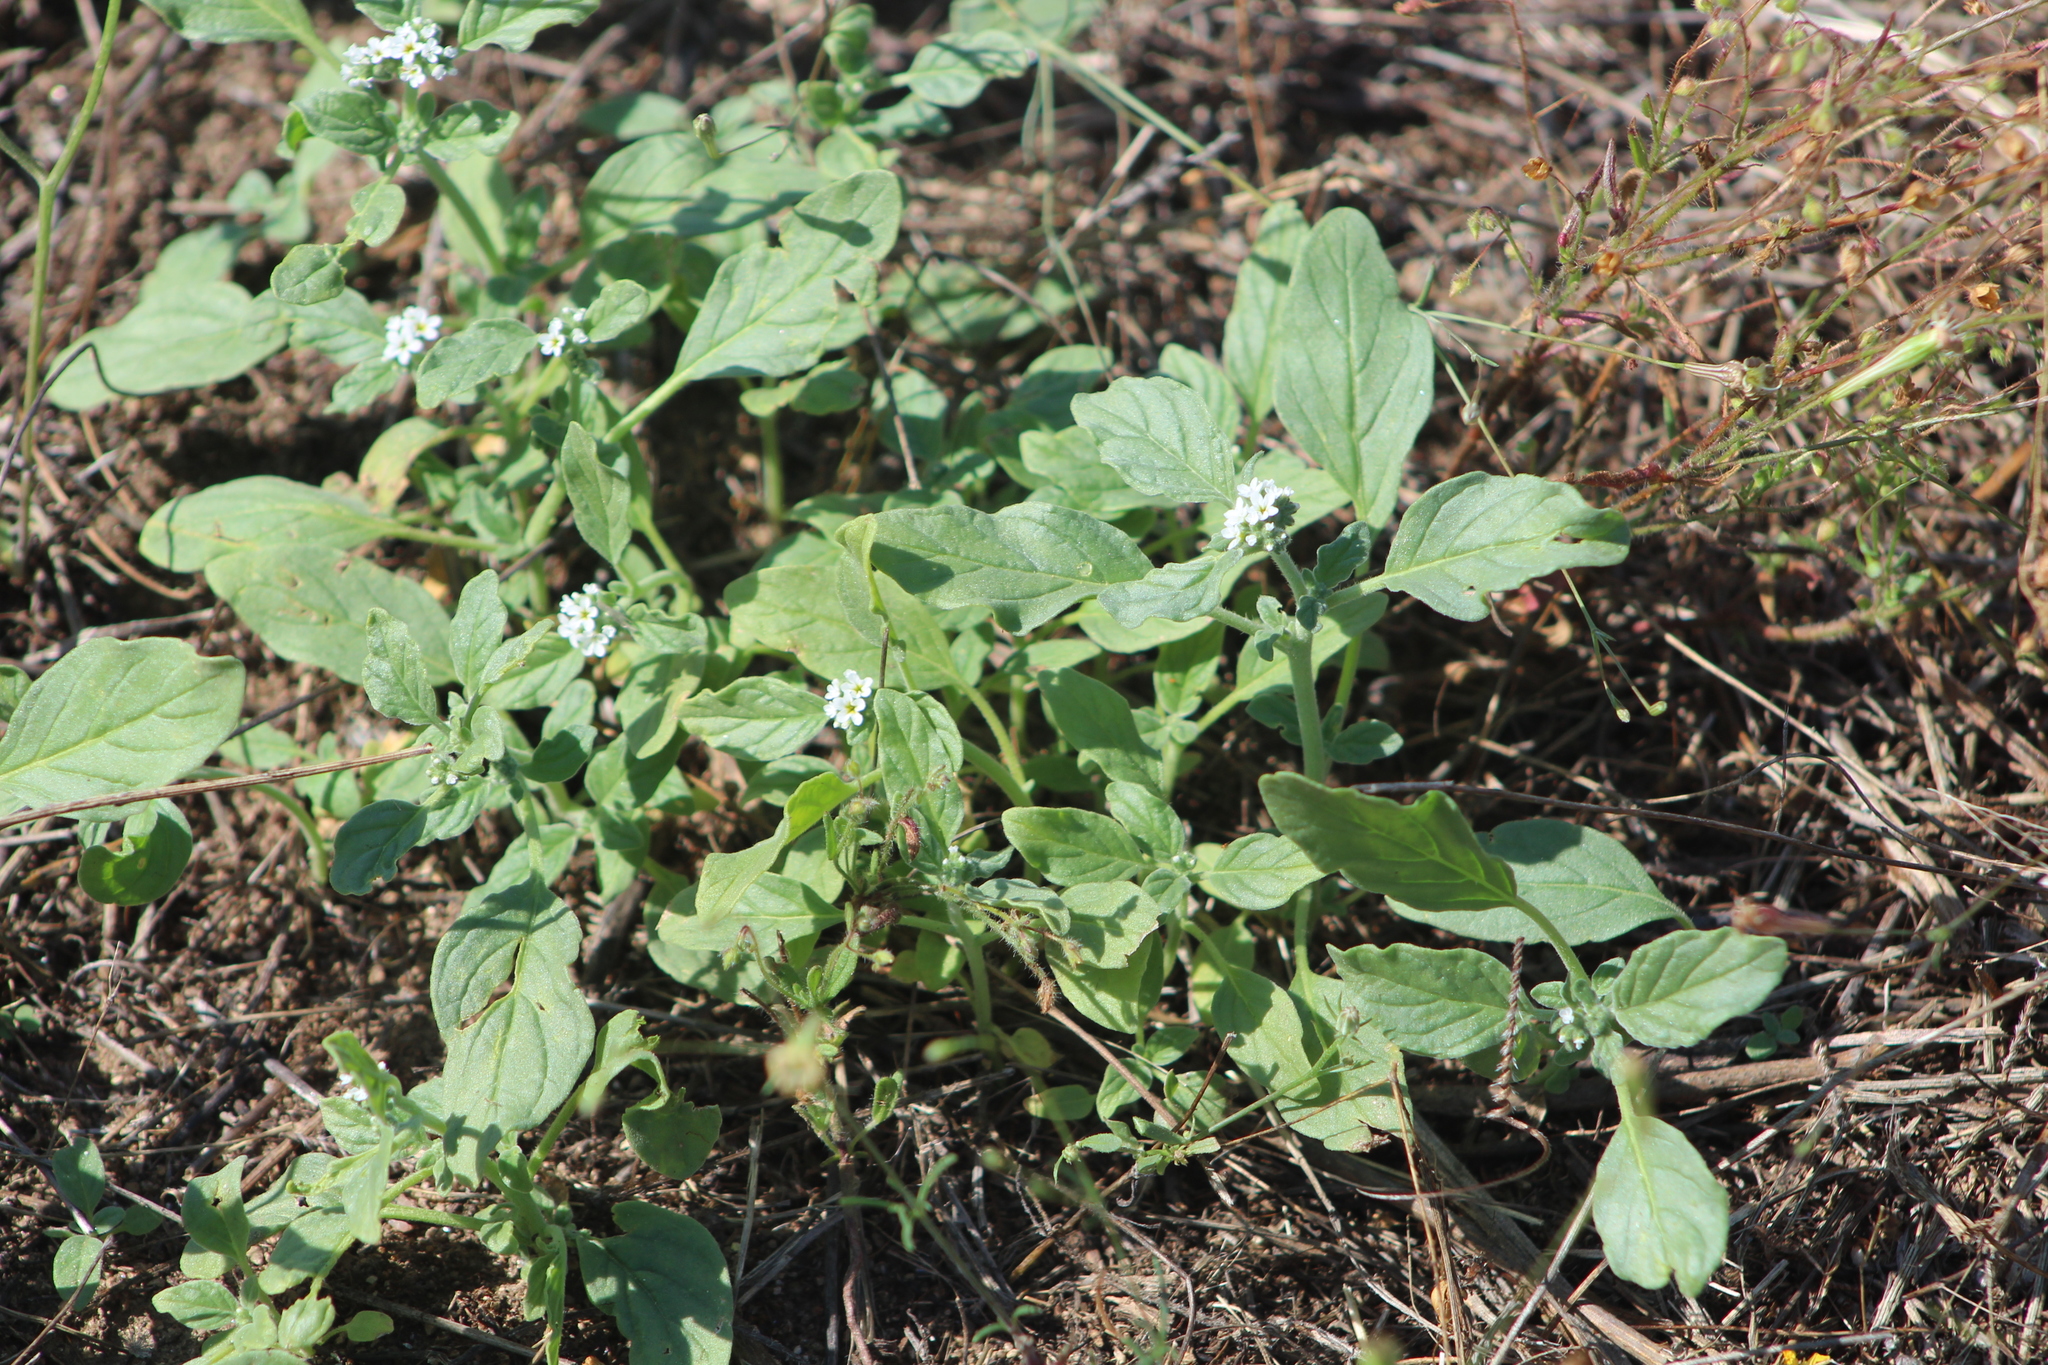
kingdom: Plantae
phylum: Tracheophyta
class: Magnoliopsida
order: Boraginales
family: Heliotropiaceae
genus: Heliotropium
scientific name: Heliotropium europaeum
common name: European heliotrope
